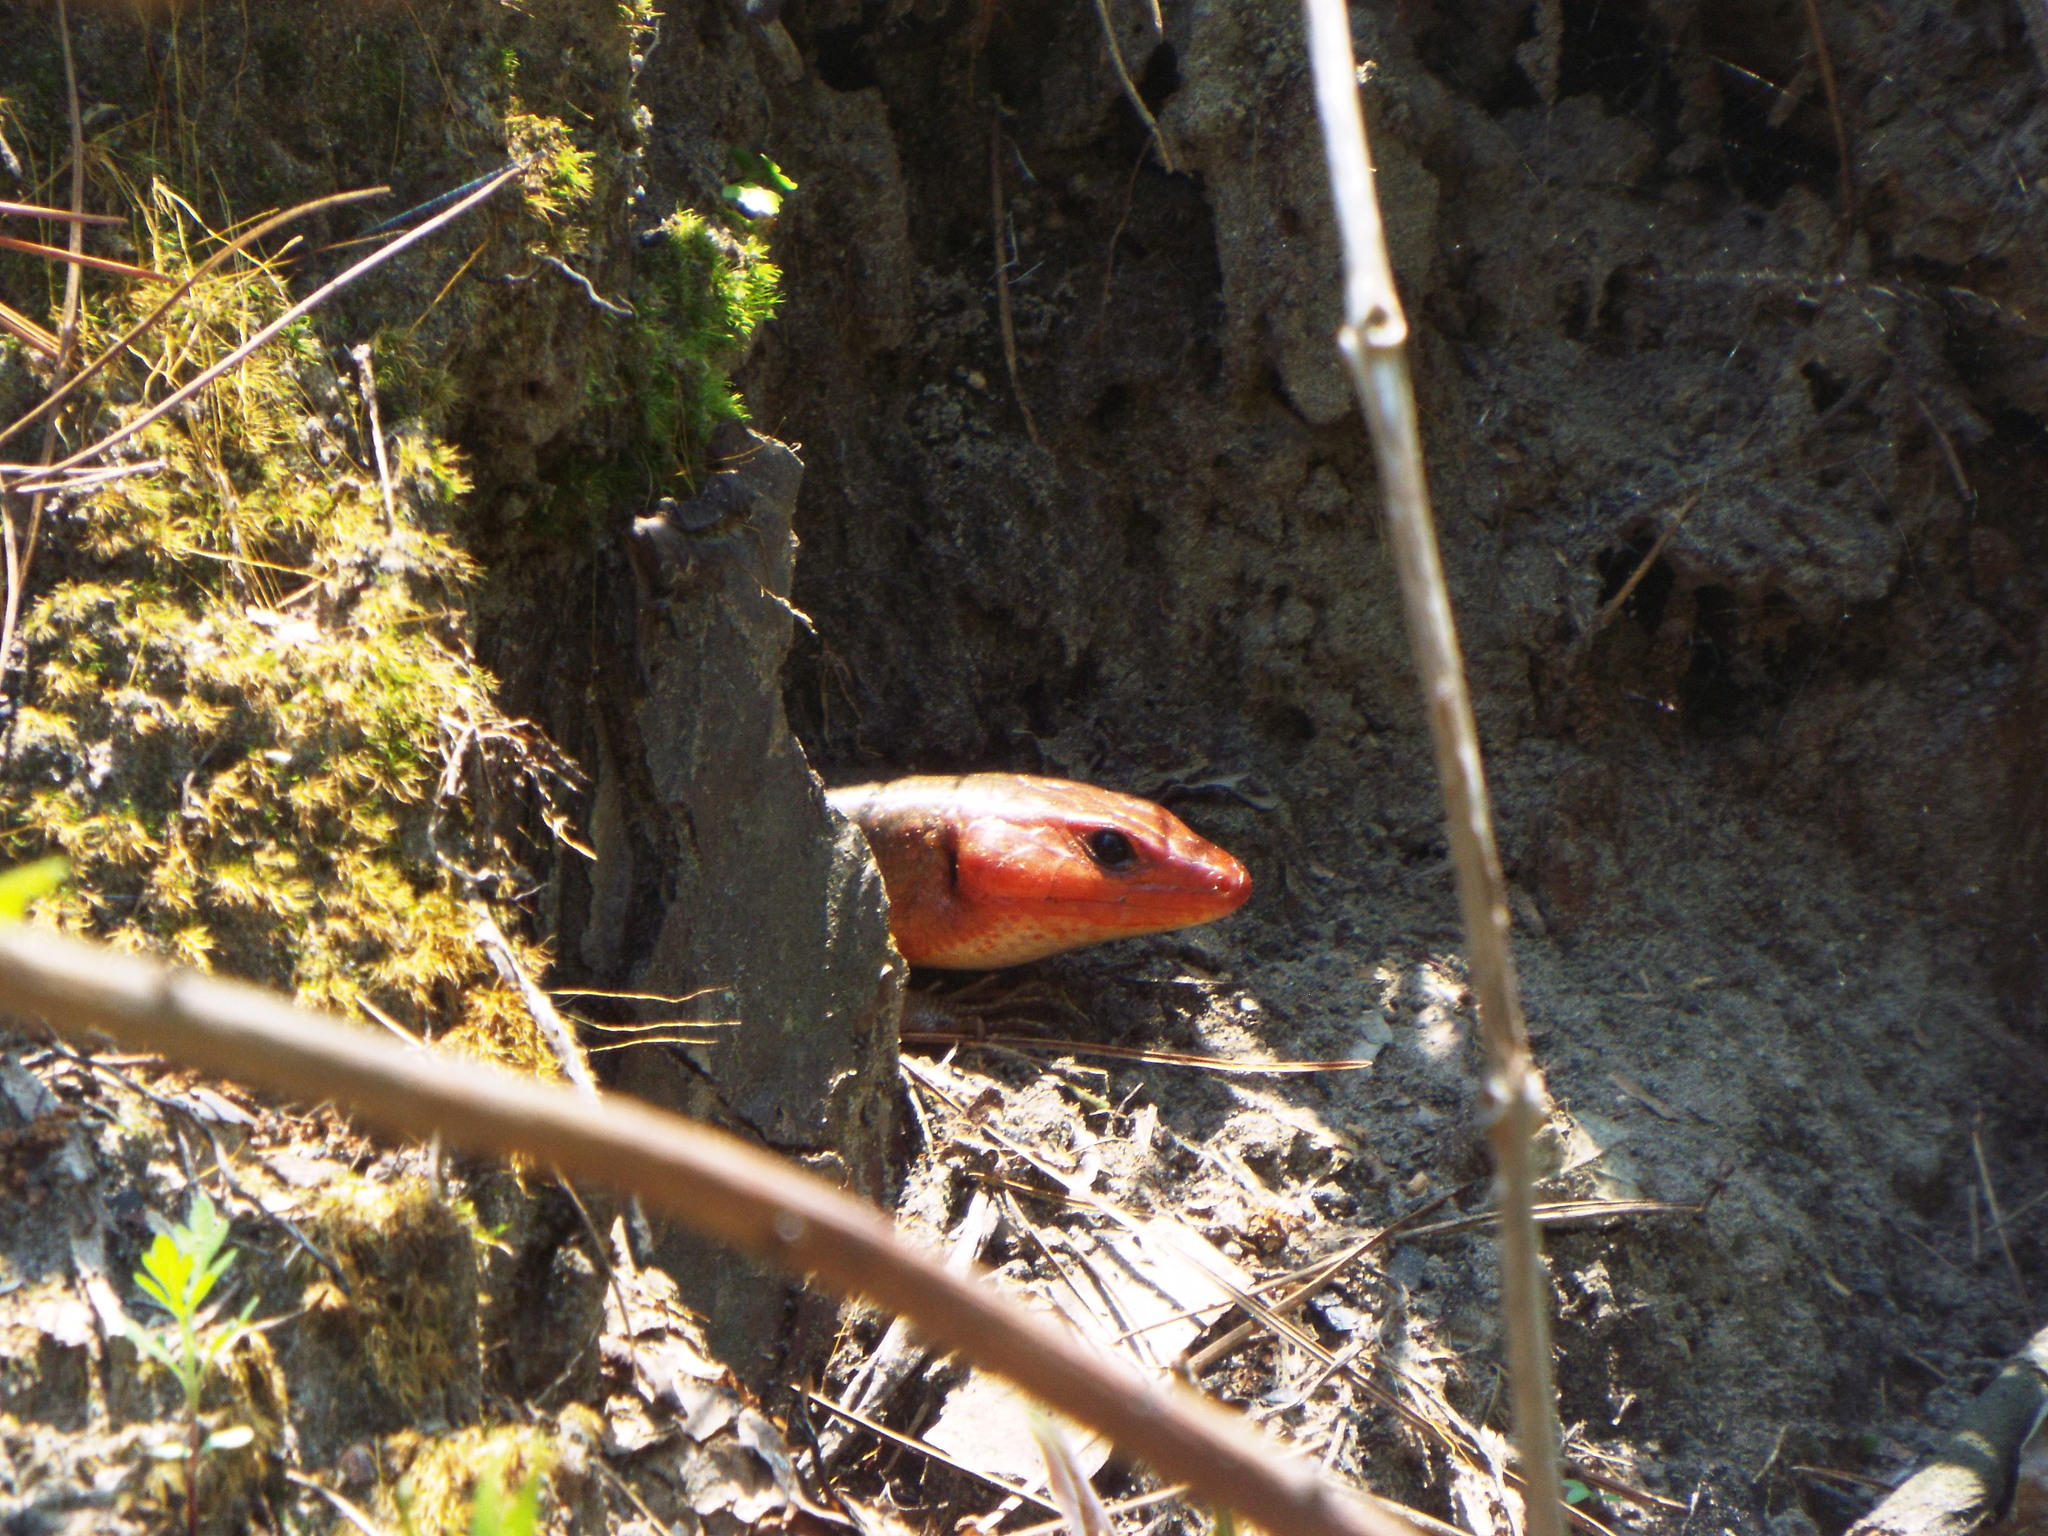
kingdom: Animalia
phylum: Chordata
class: Squamata
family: Scincidae
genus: Plestiodon
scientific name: Plestiodon
